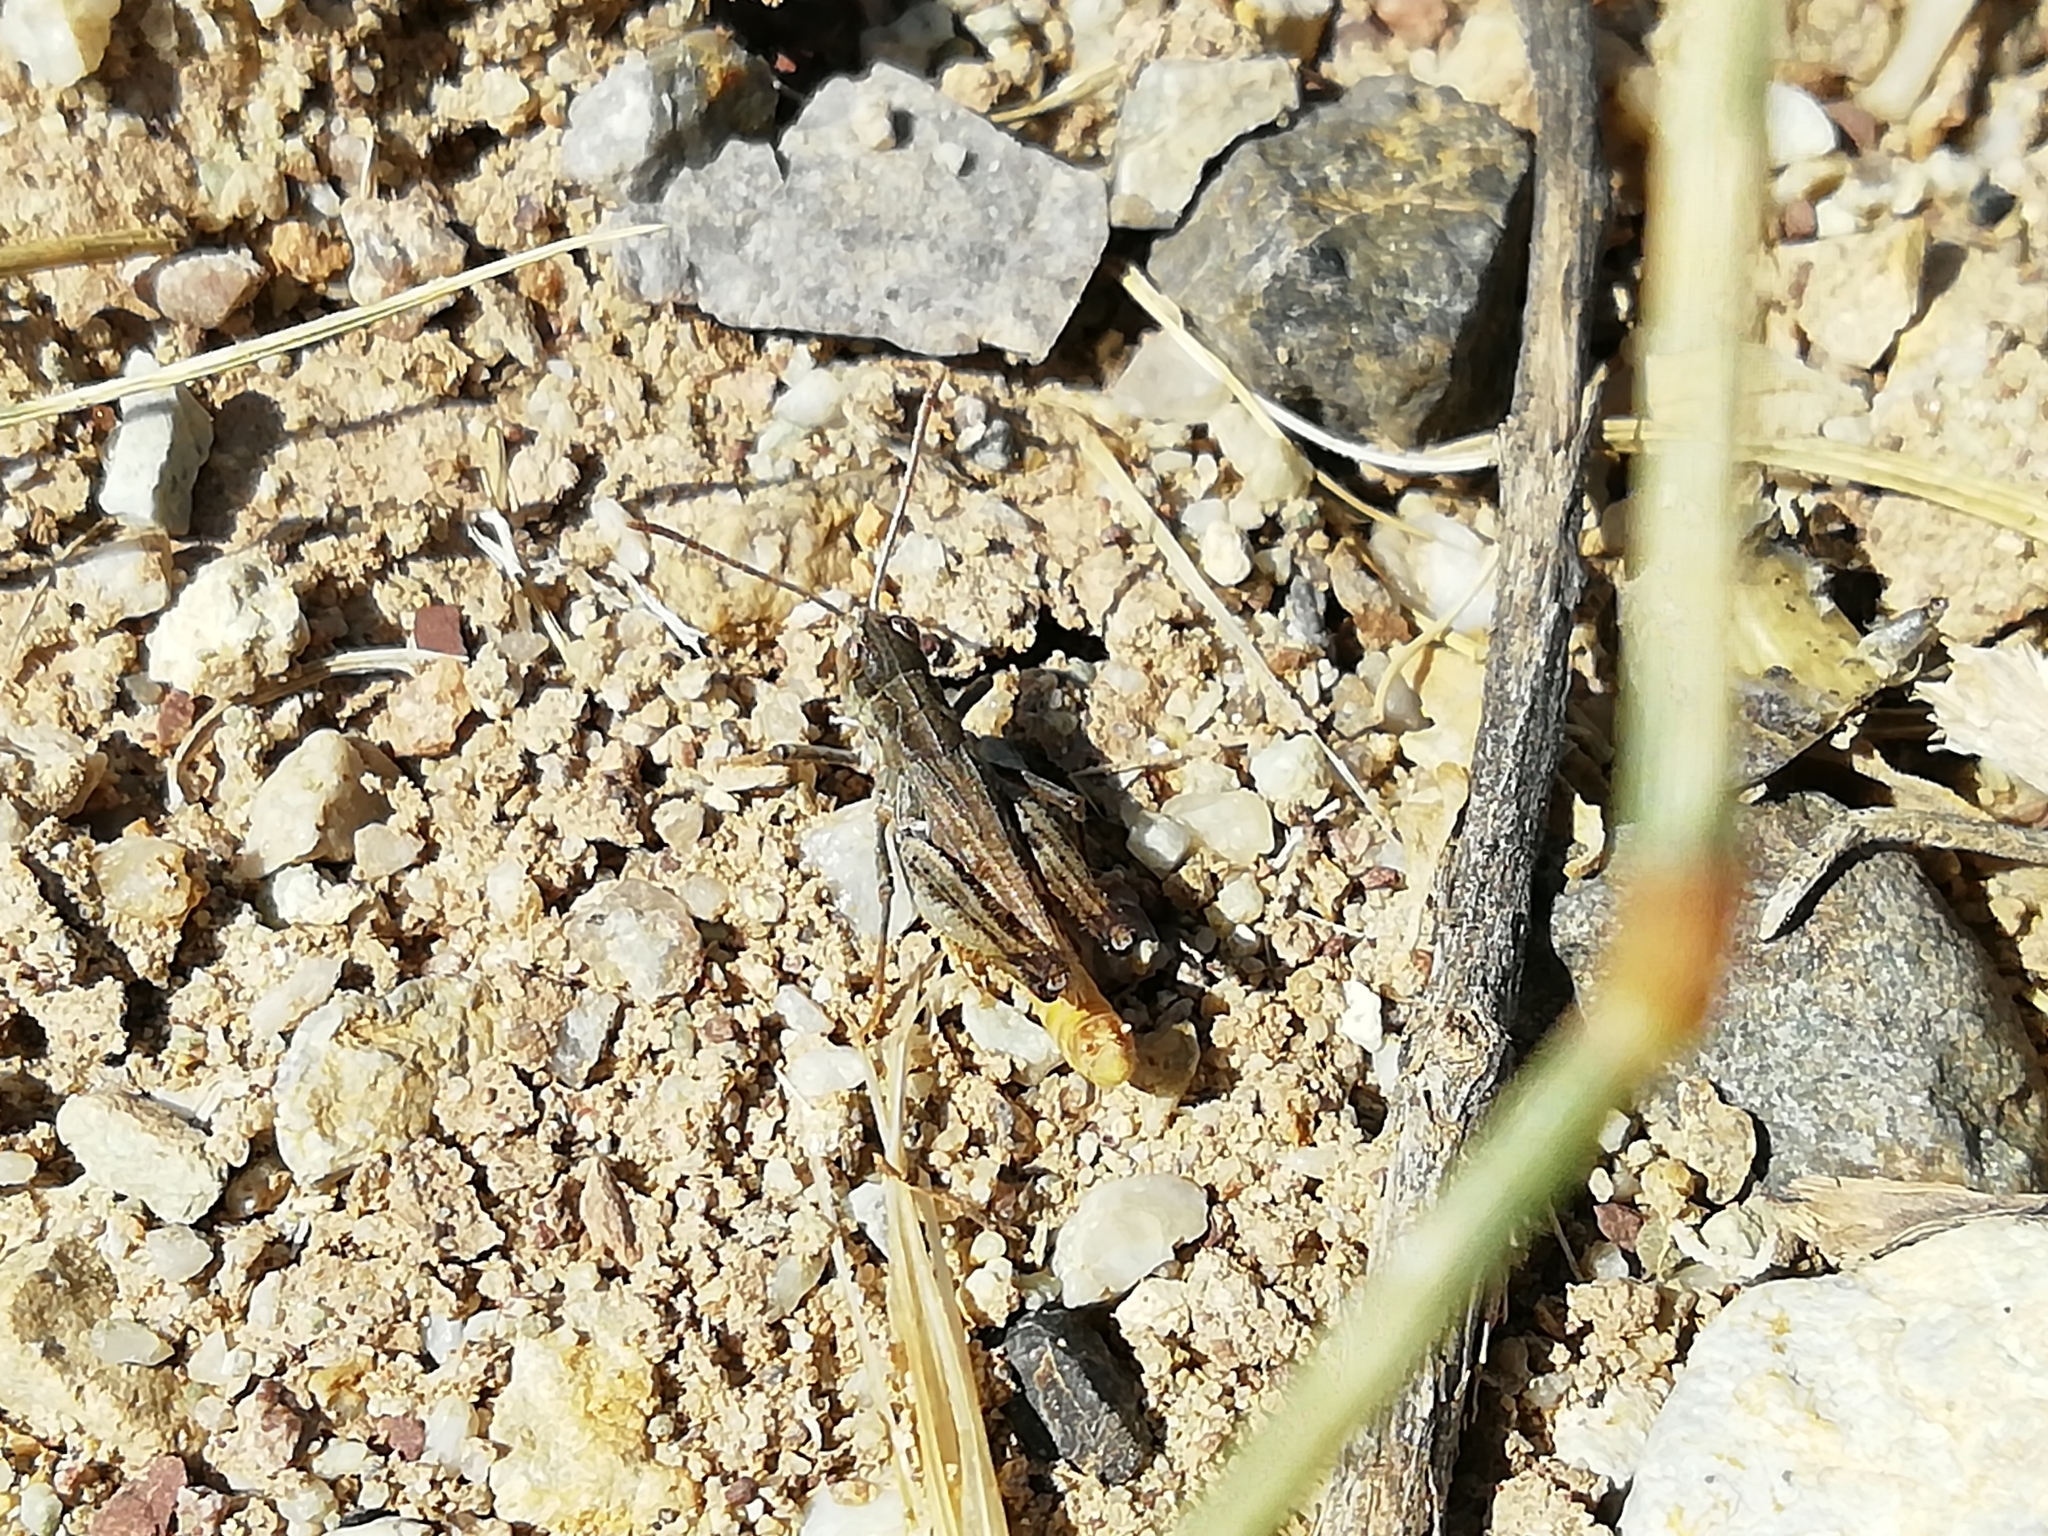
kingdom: Animalia
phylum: Arthropoda
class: Insecta
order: Orthoptera
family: Acrididae
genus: Myrmeleotettix
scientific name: Myrmeleotettix palpalis
